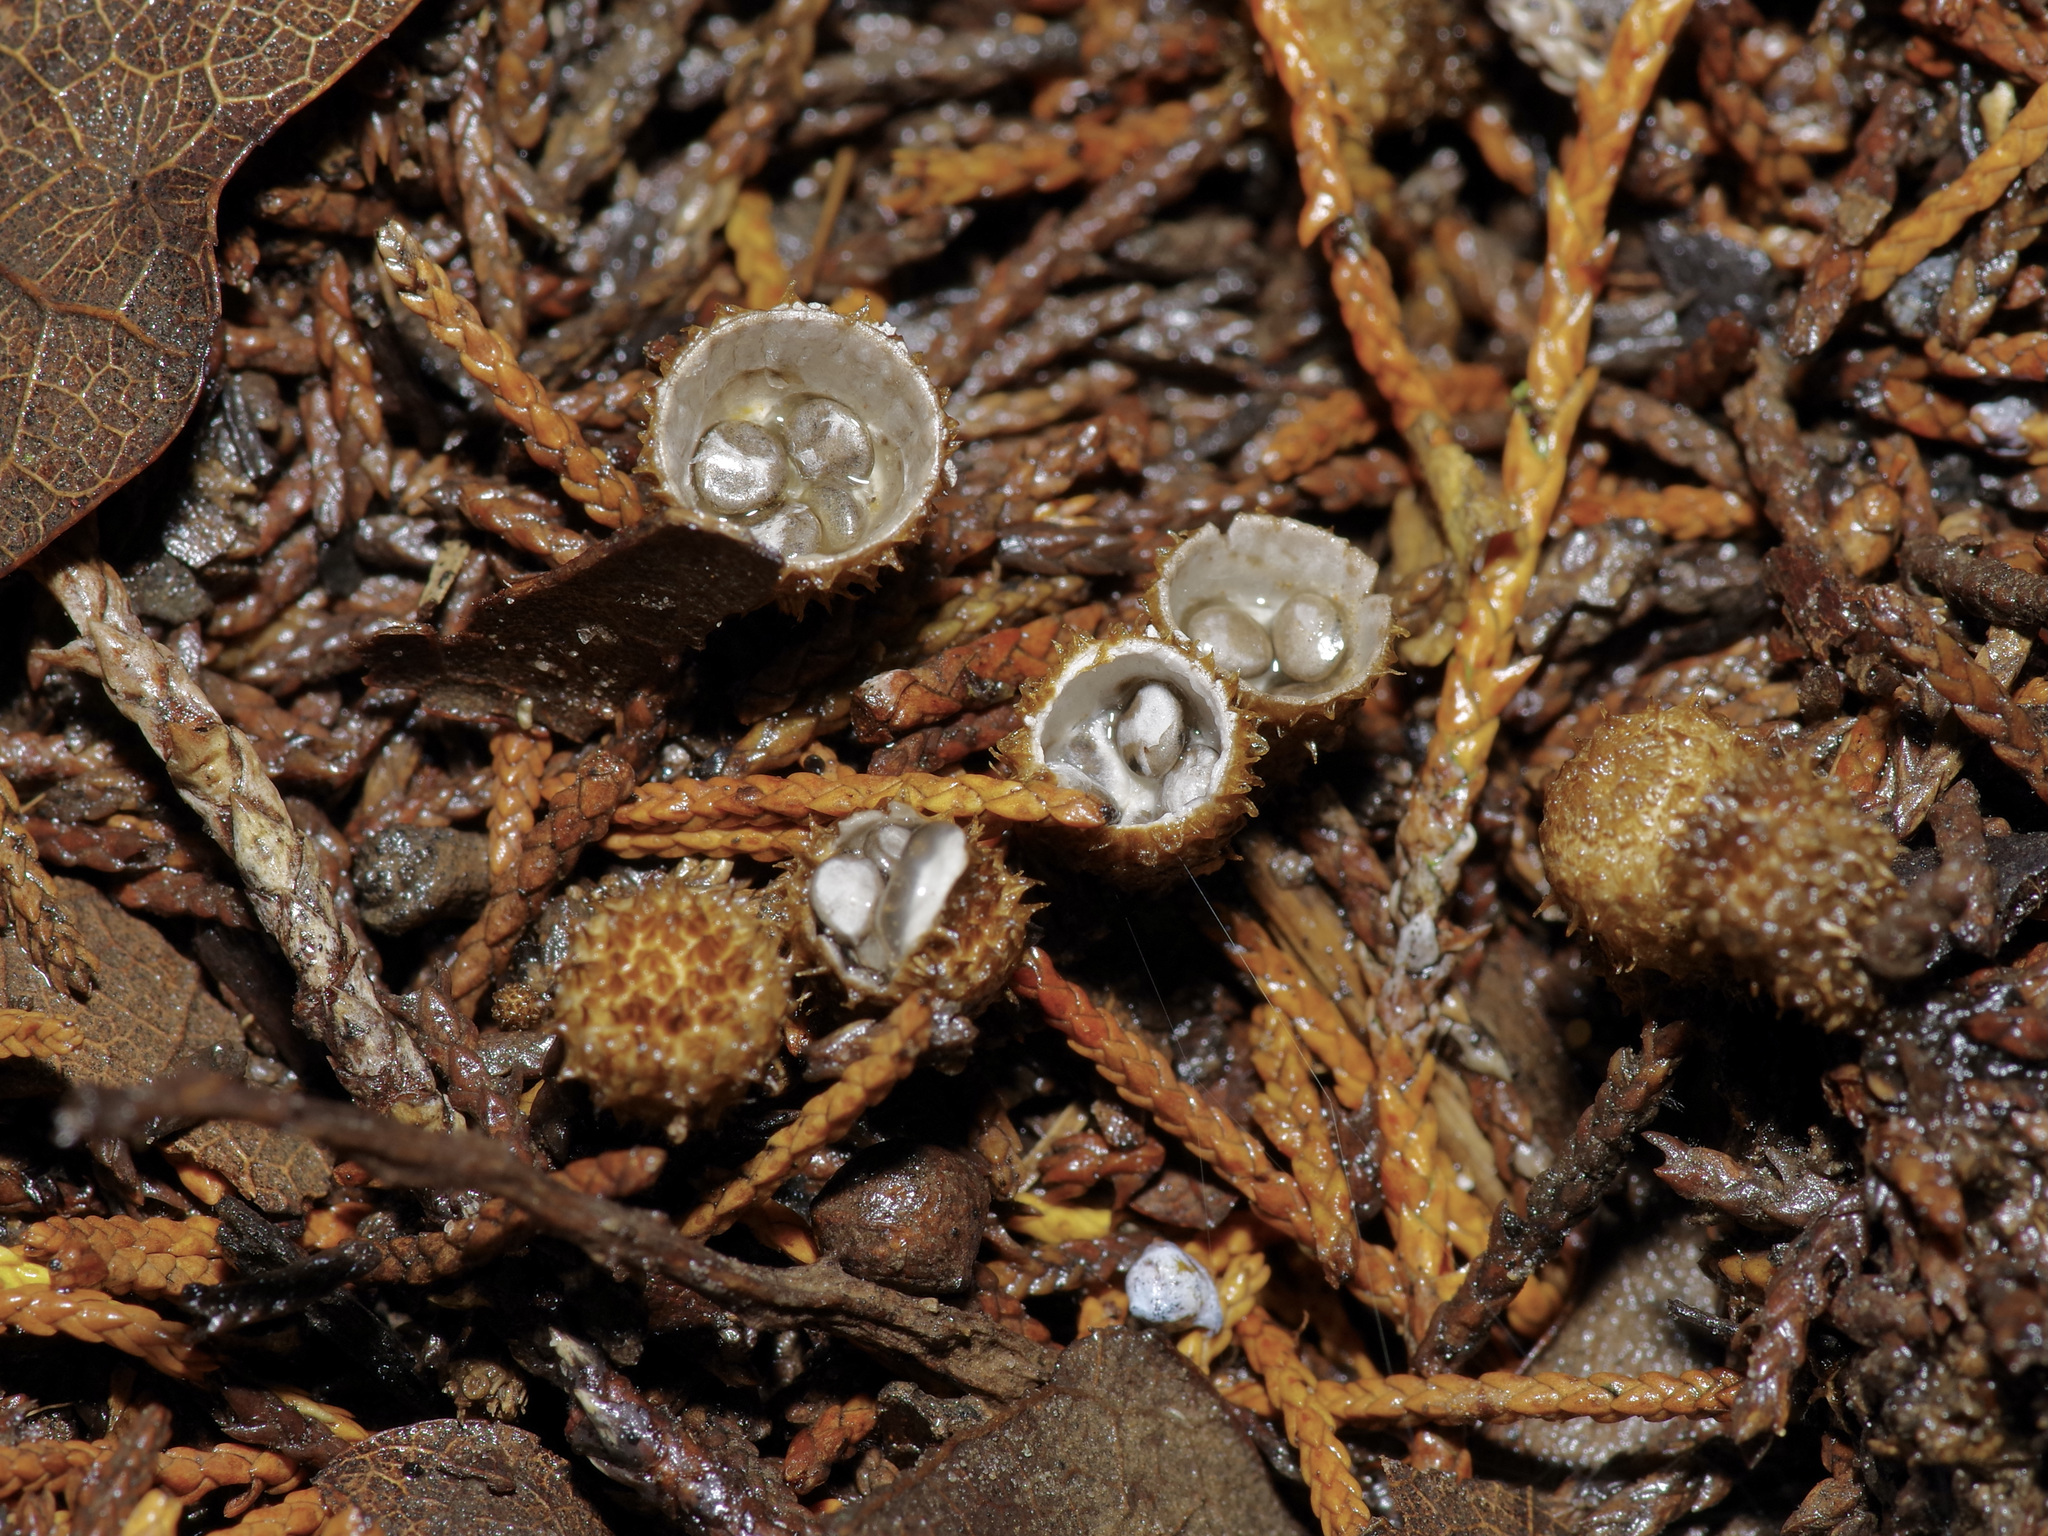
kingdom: Fungi
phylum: Basidiomycota
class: Agaricomycetes
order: Agaricales
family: Agaricaceae
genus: Cyathus
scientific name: Cyathus stercoreus
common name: Dung bird's nest
